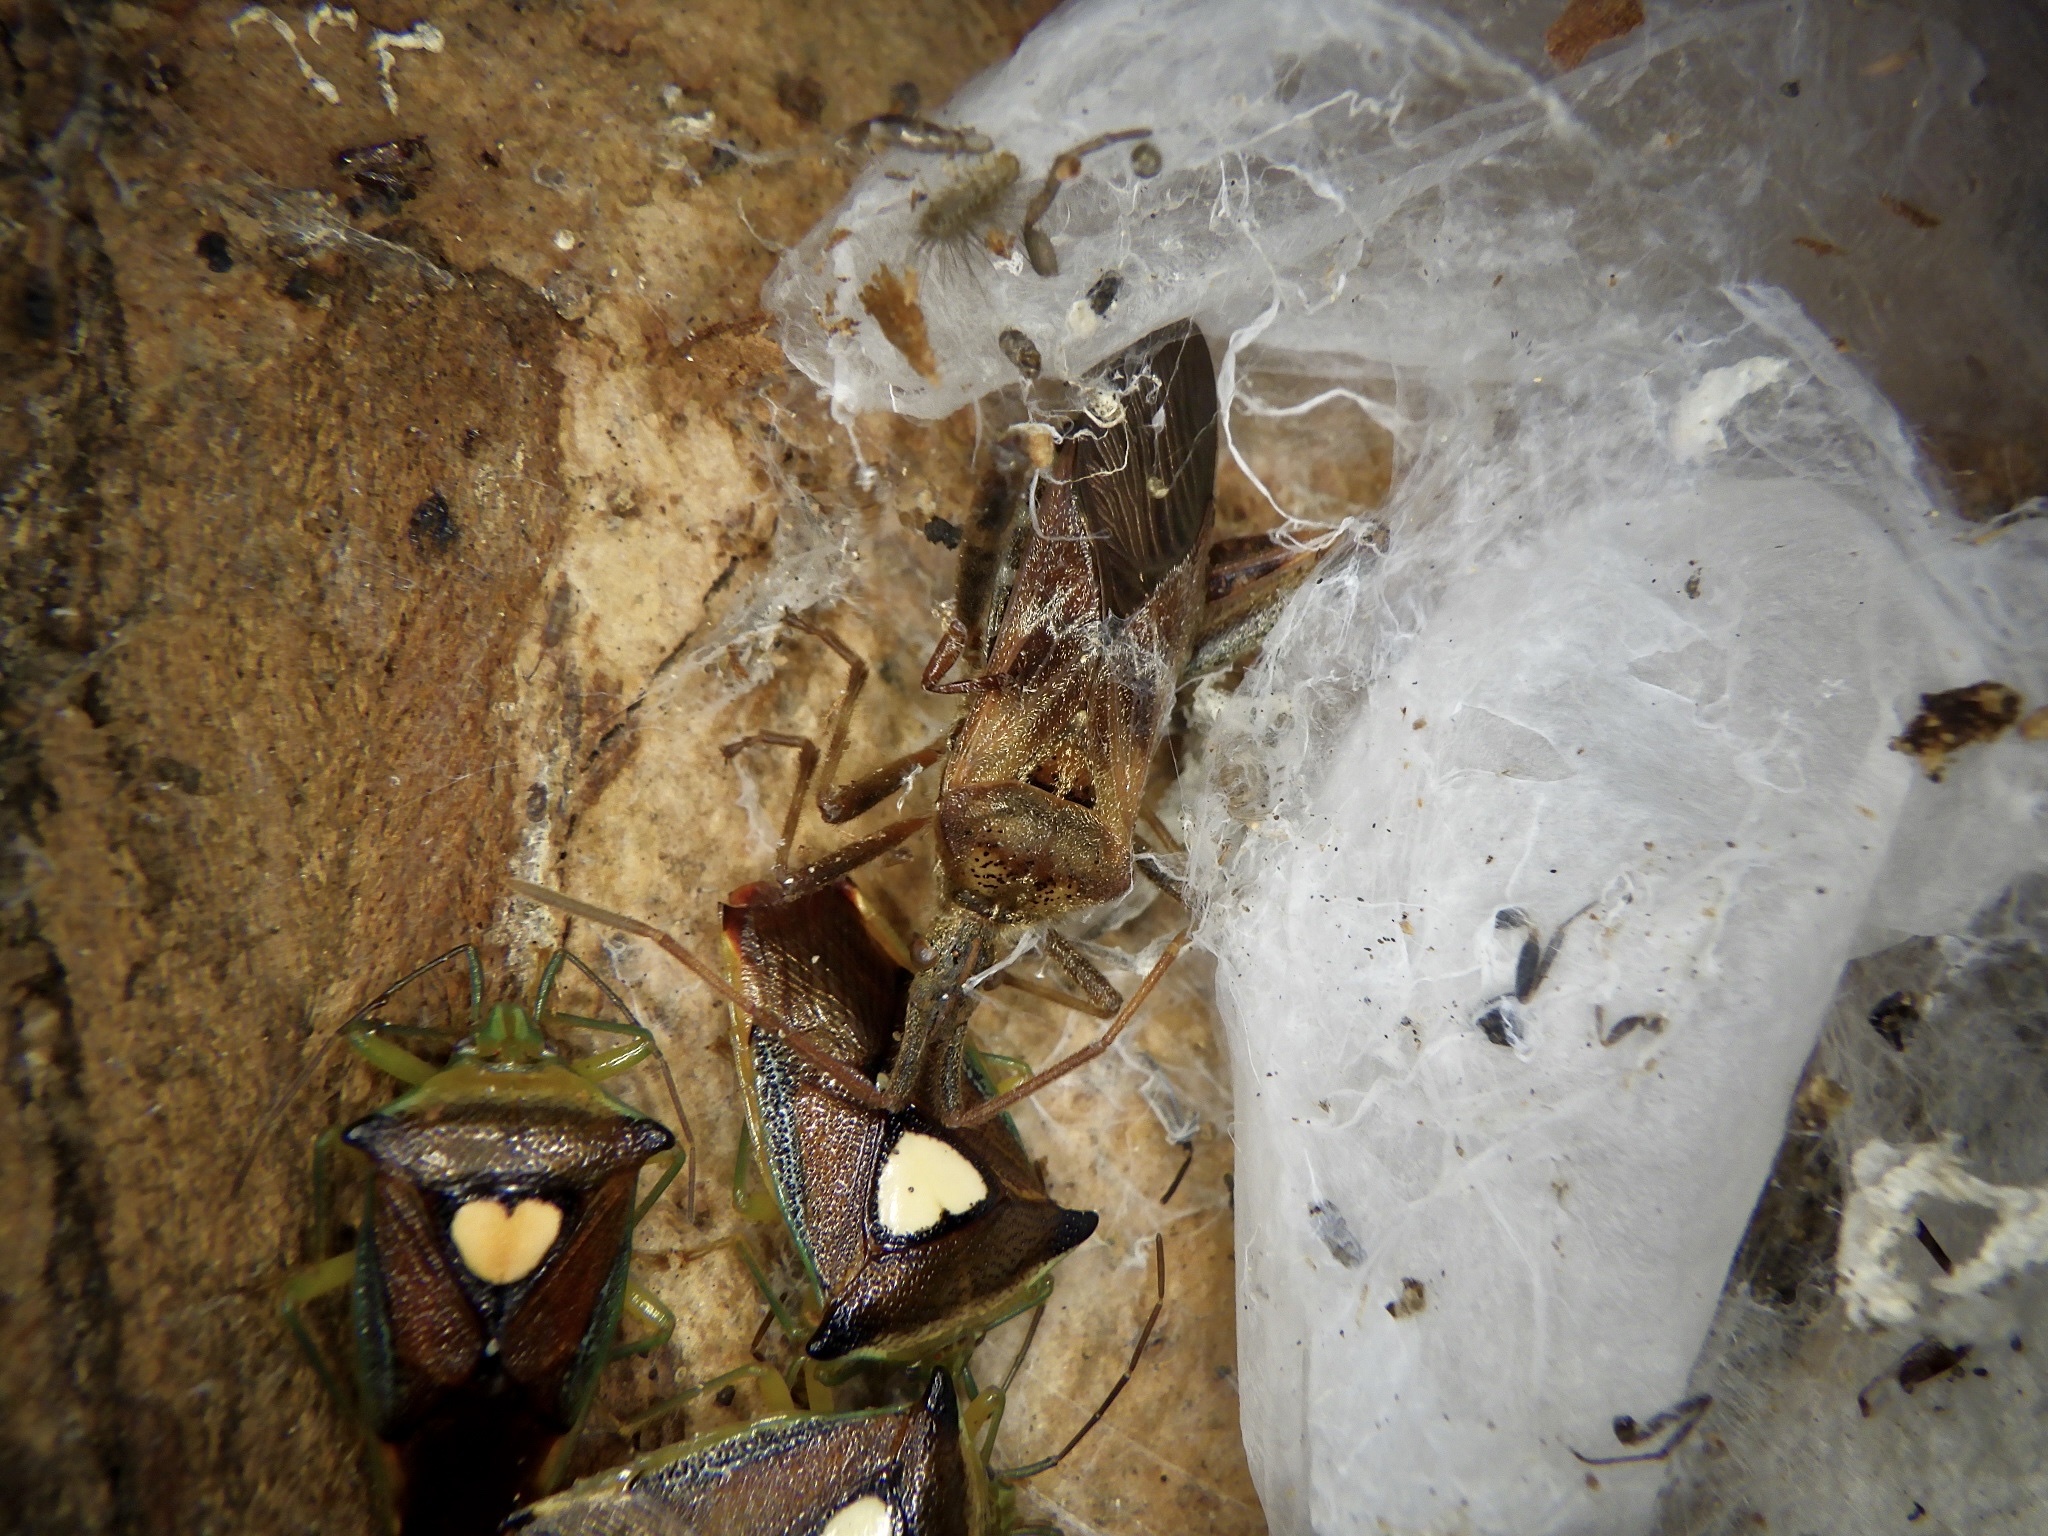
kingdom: Animalia
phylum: Arthropoda
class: Insecta
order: Hemiptera
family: Coreidae
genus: Leptoglossus
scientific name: Leptoglossus occidentalis
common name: Western conifer-seed bug
